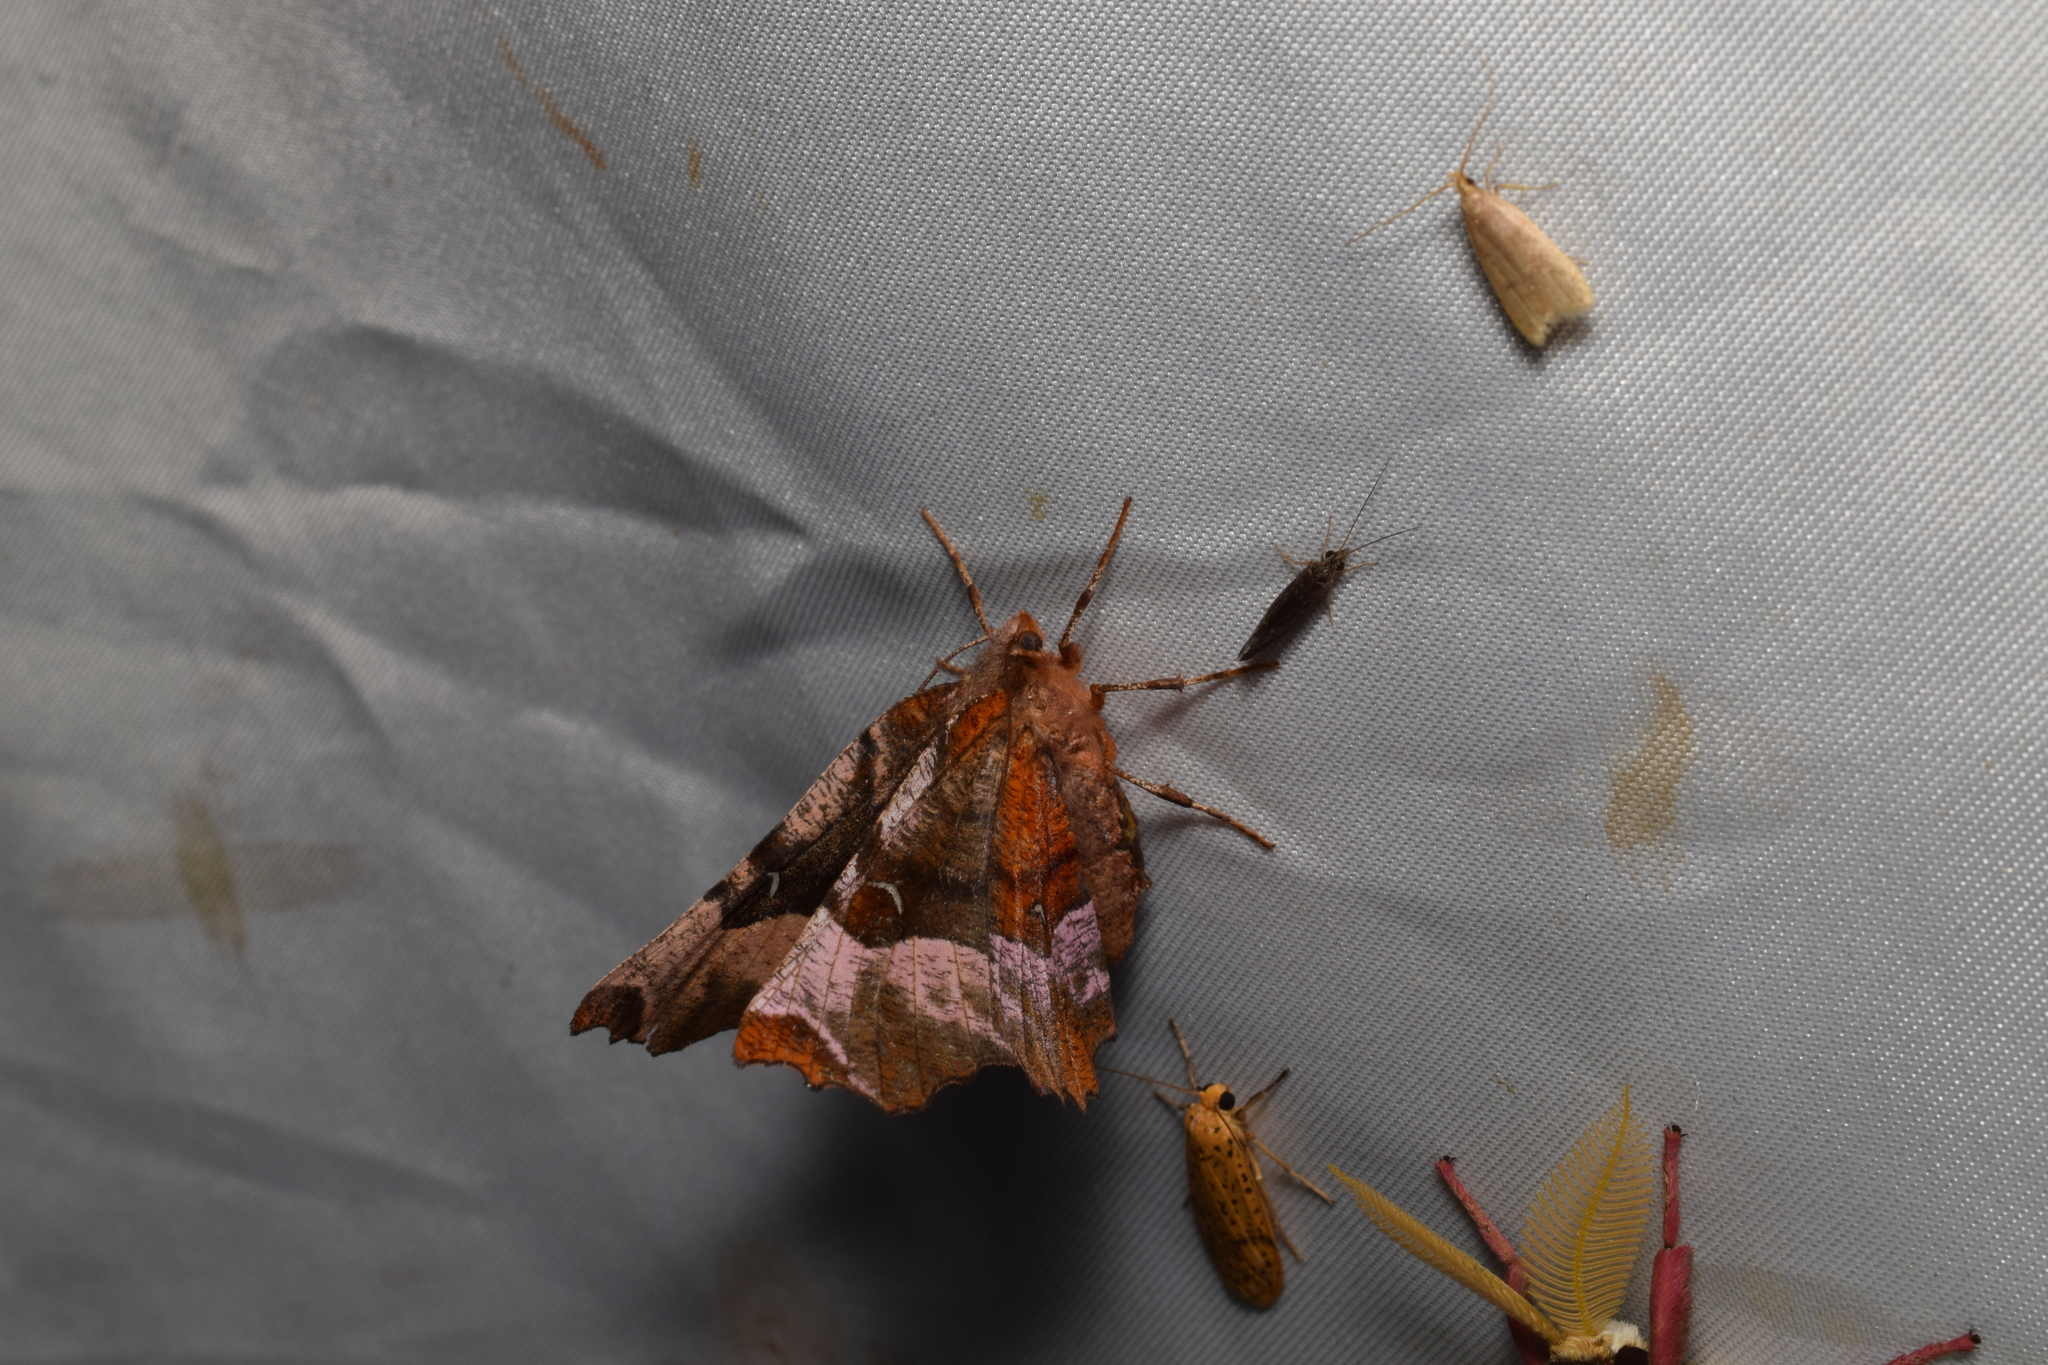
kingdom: Animalia
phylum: Arthropoda
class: Insecta
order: Lepidoptera
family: Geometridae
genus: Selenia
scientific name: Selenia tetralunaria
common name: Purple thorn
